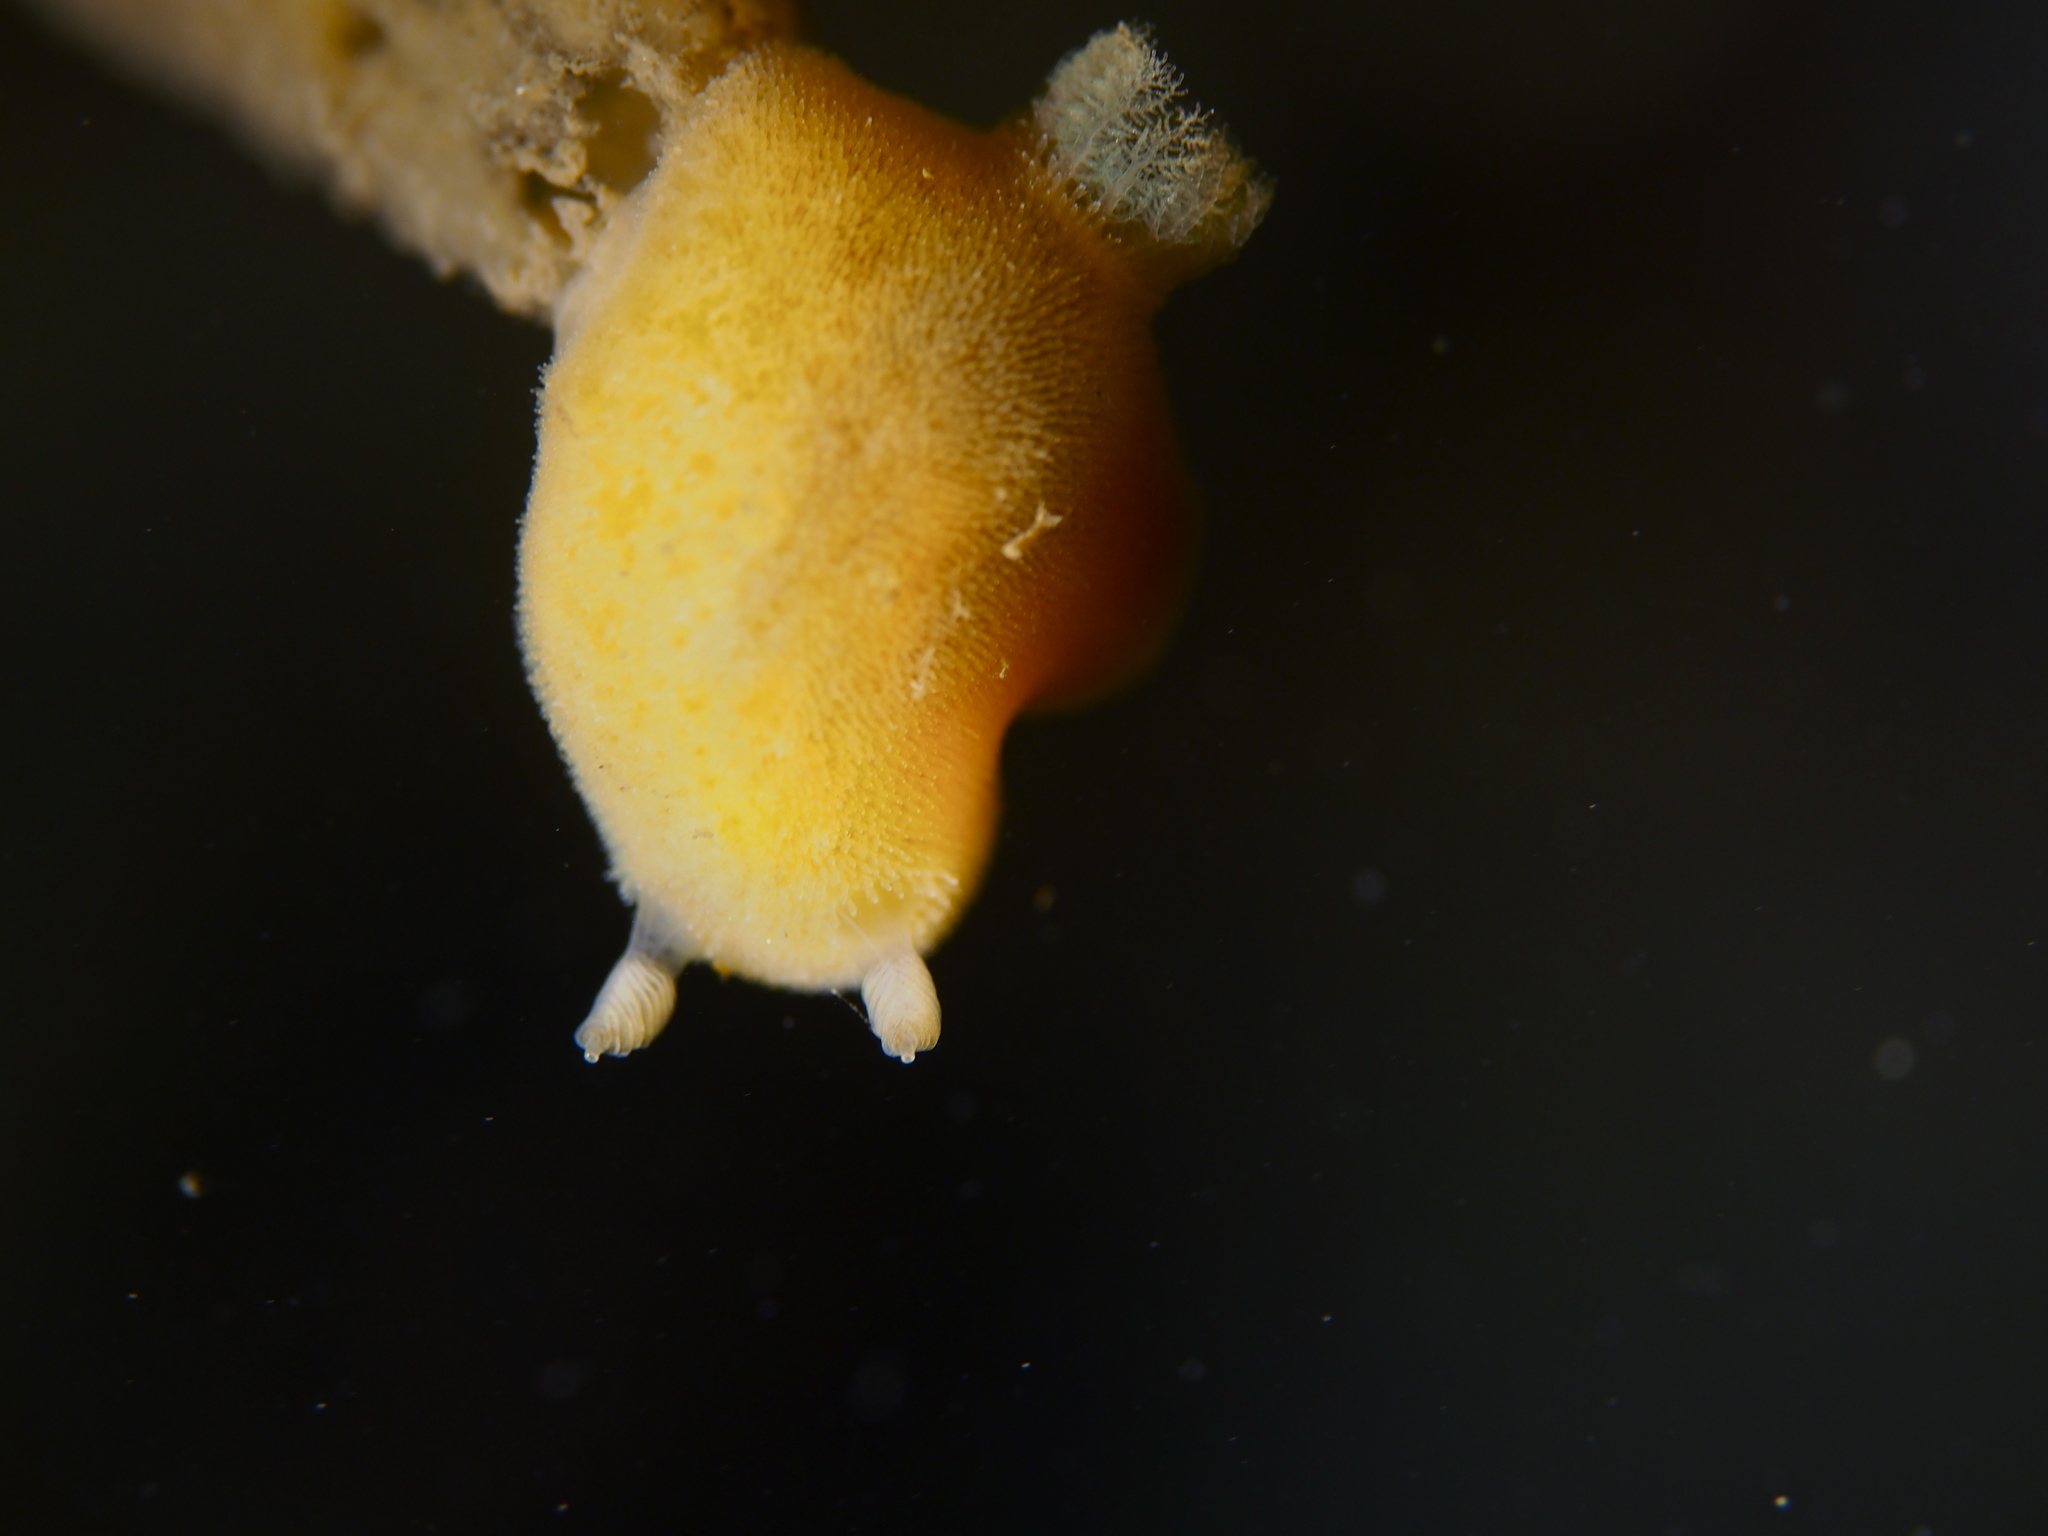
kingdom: Animalia
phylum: Mollusca
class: Gastropoda
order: Nudibranchia
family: Discodorididae
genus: Jorunna
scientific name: Jorunna tomentosa
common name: Grey sea slug
